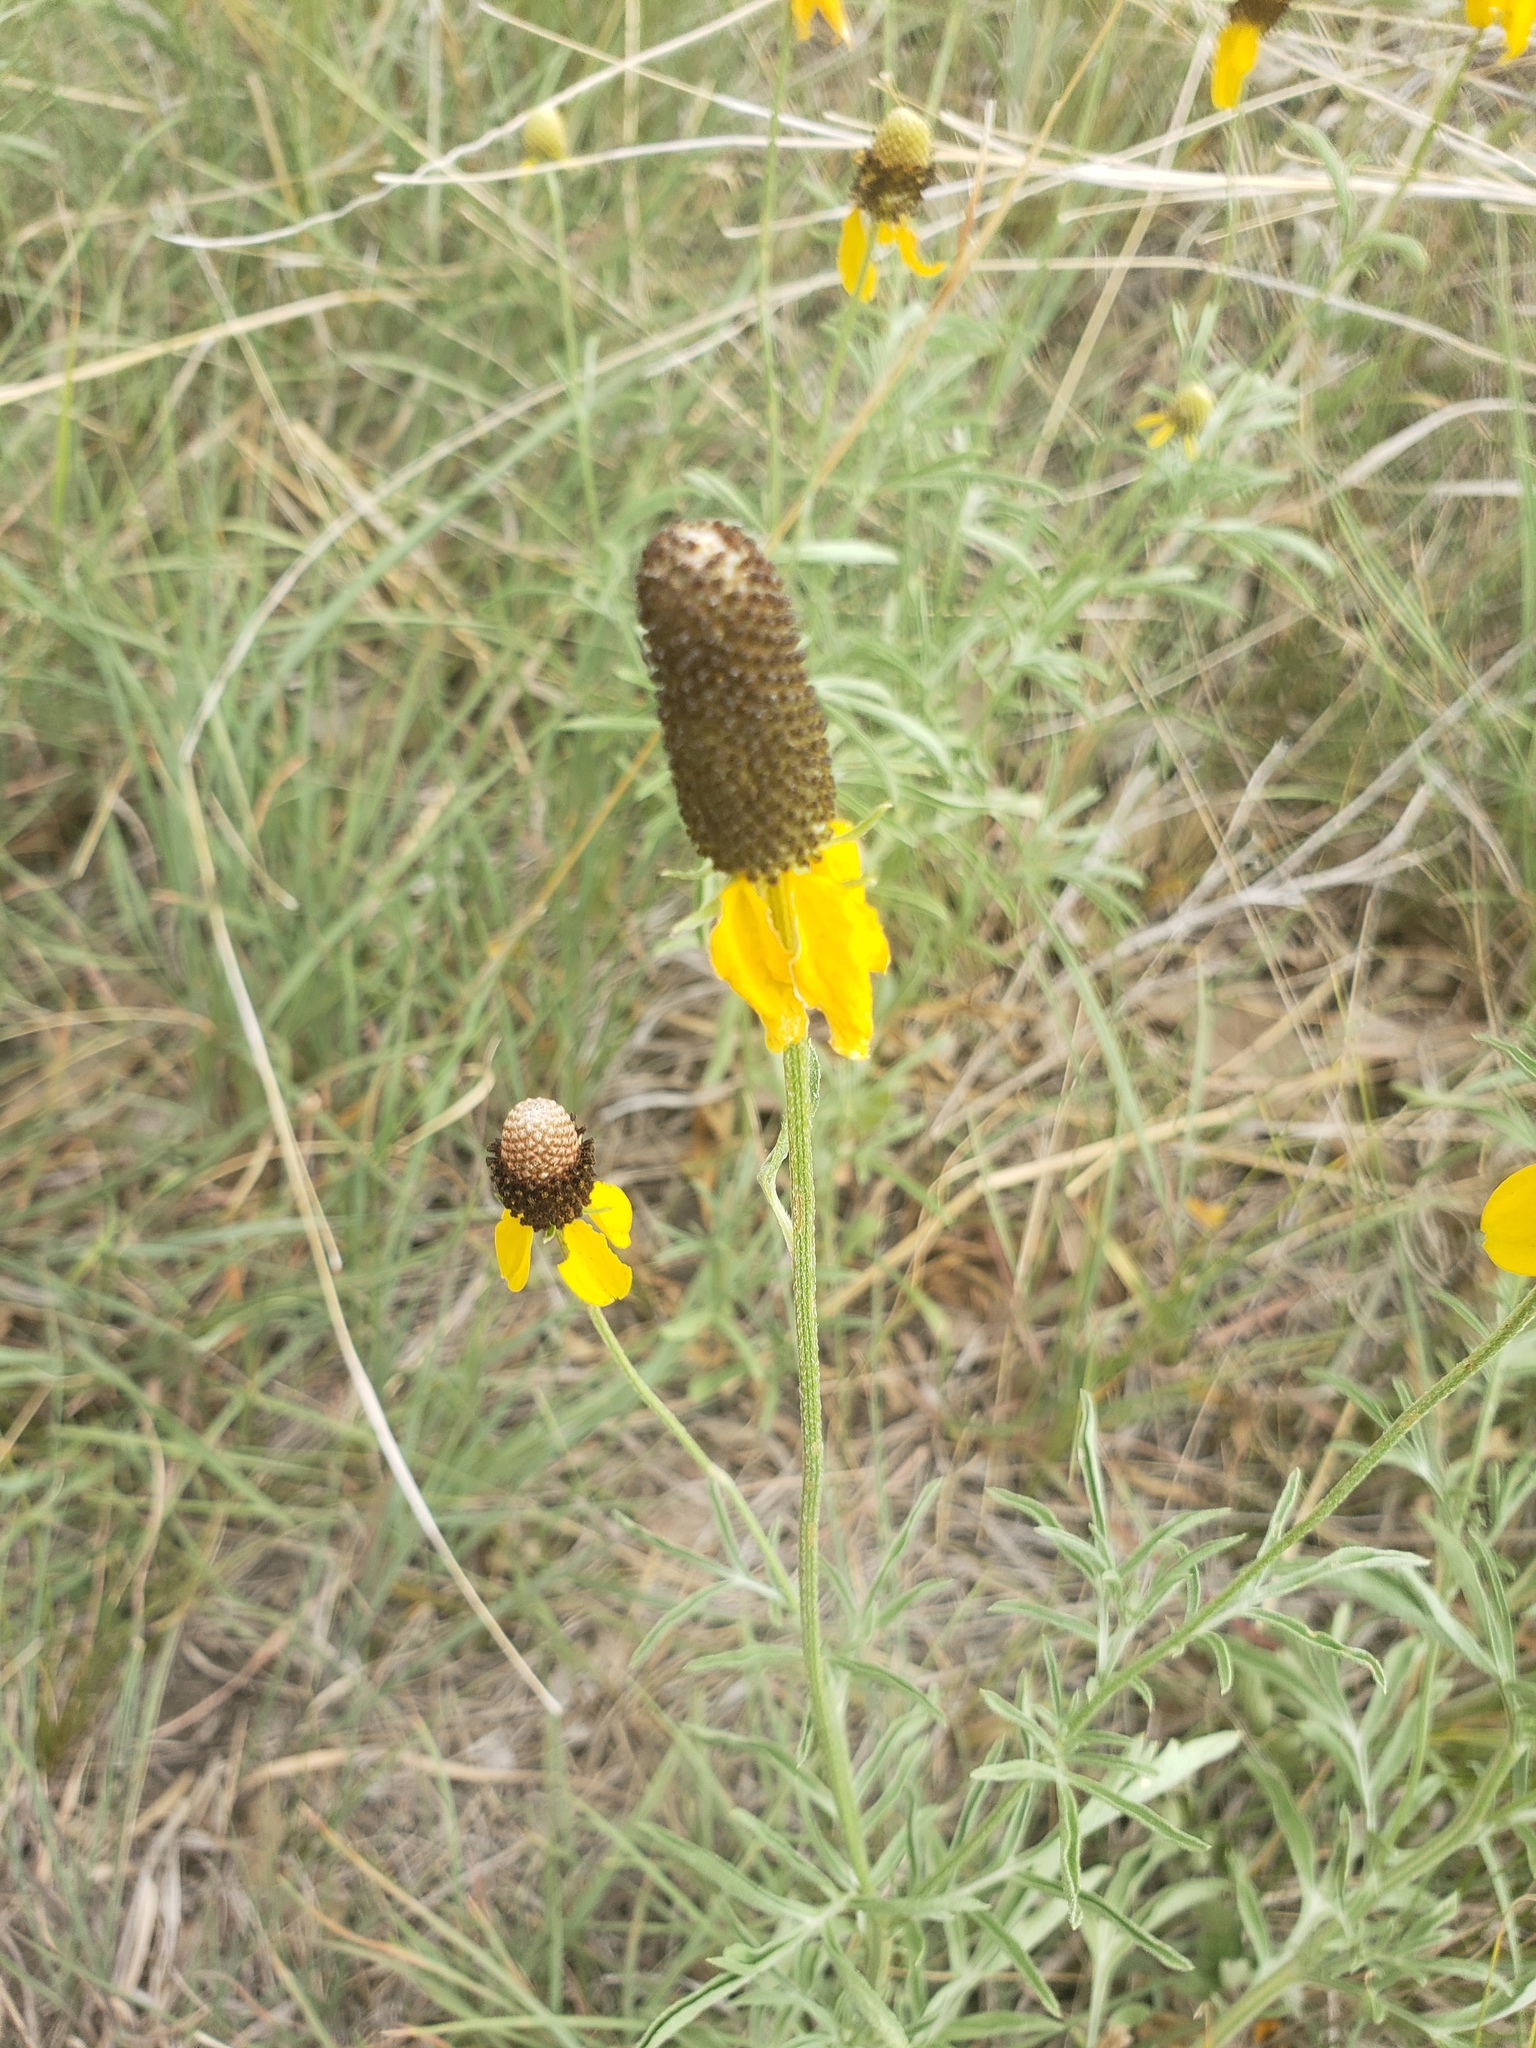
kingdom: Plantae
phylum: Tracheophyta
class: Magnoliopsida
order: Asterales
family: Asteraceae
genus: Ratibida
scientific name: Ratibida columnifera
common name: Prairie coneflower
